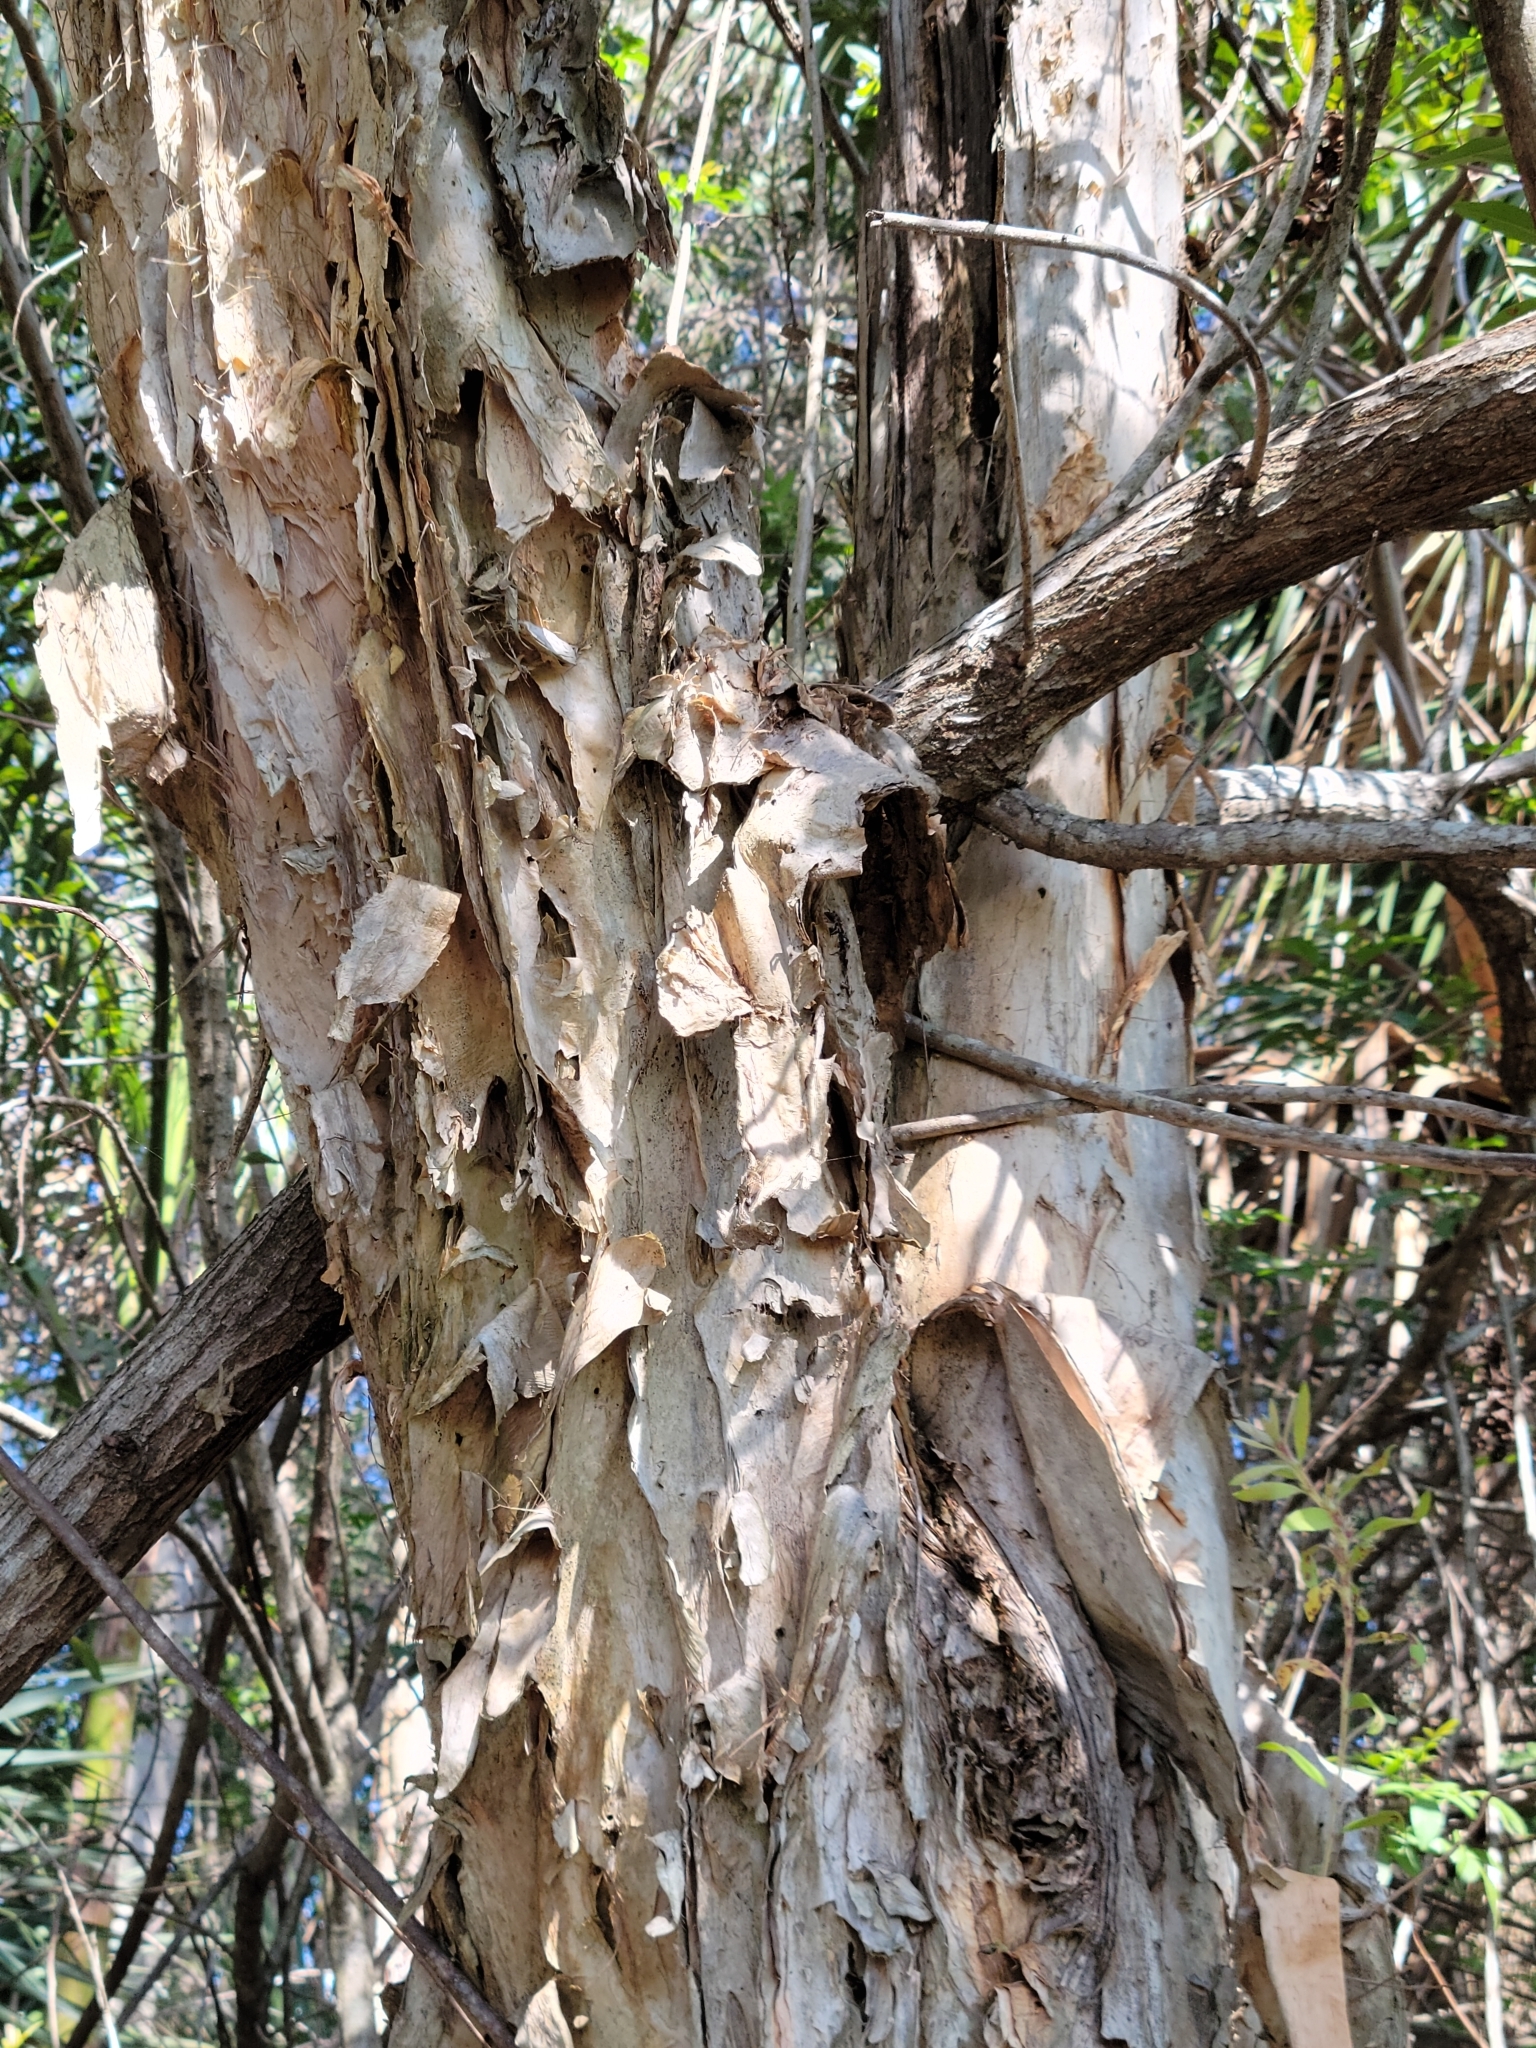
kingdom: Plantae
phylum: Tracheophyta
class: Magnoliopsida
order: Myrtales
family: Myrtaceae
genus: Melaleuca
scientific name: Melaleuca quinquenervia
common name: Punktree
